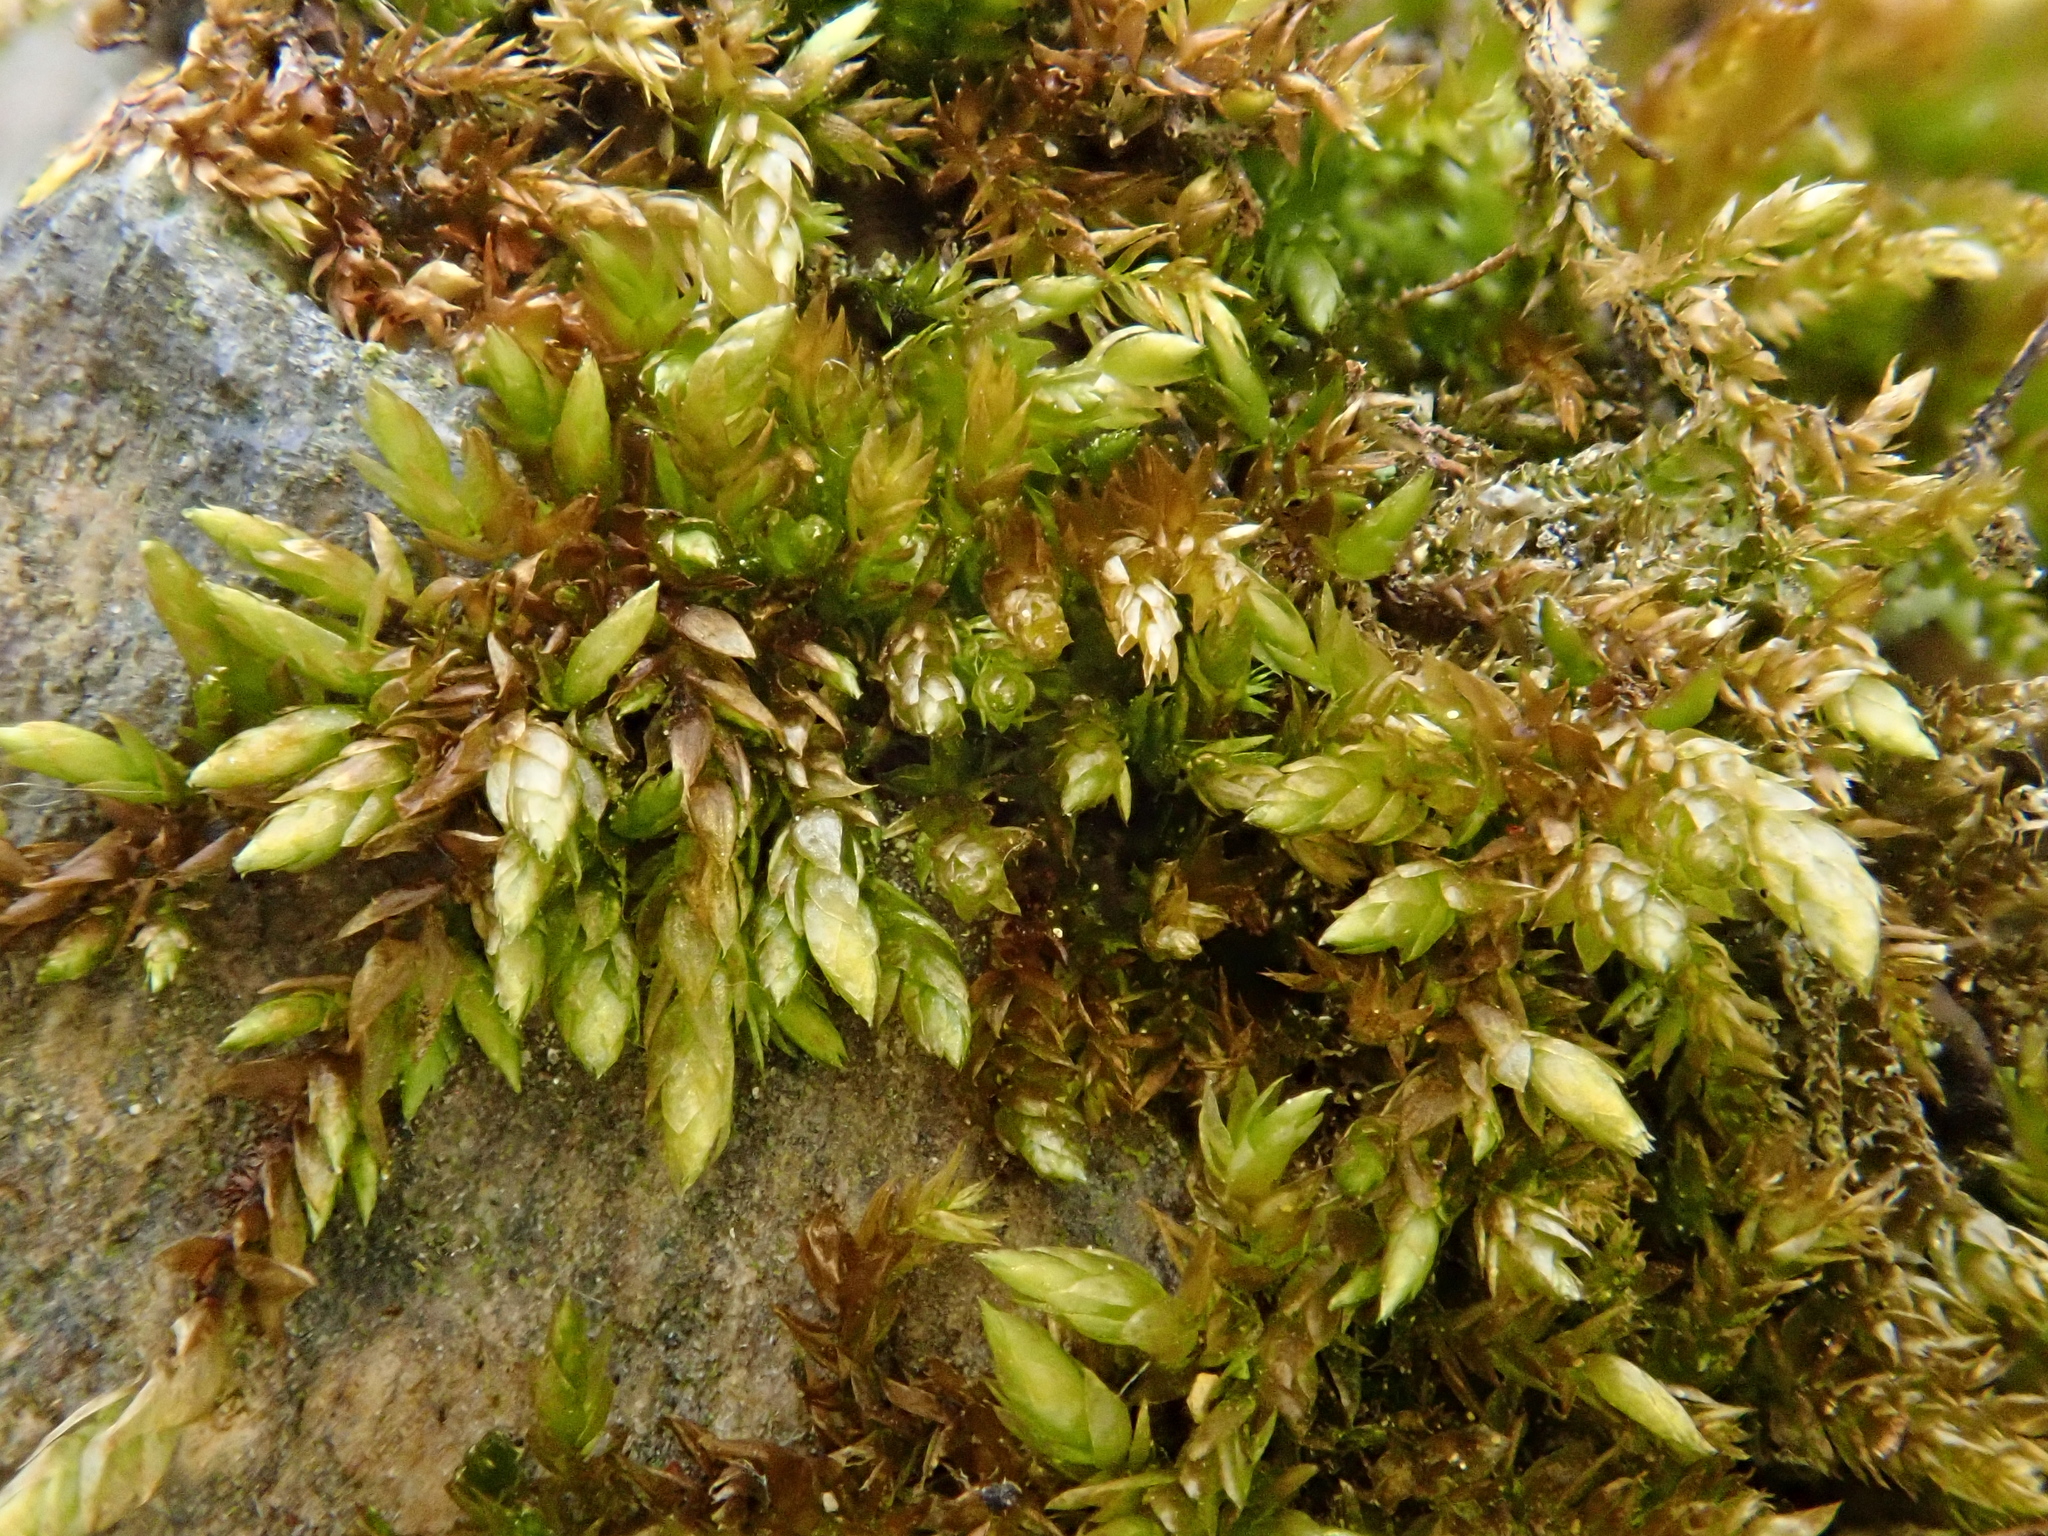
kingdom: Plantae
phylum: Bryophyta
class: Bryopsida
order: Hypnales
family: Brachytheciaceae
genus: Rhynchostegium
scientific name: Rhynchostegium murale
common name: Wall feather-moss
